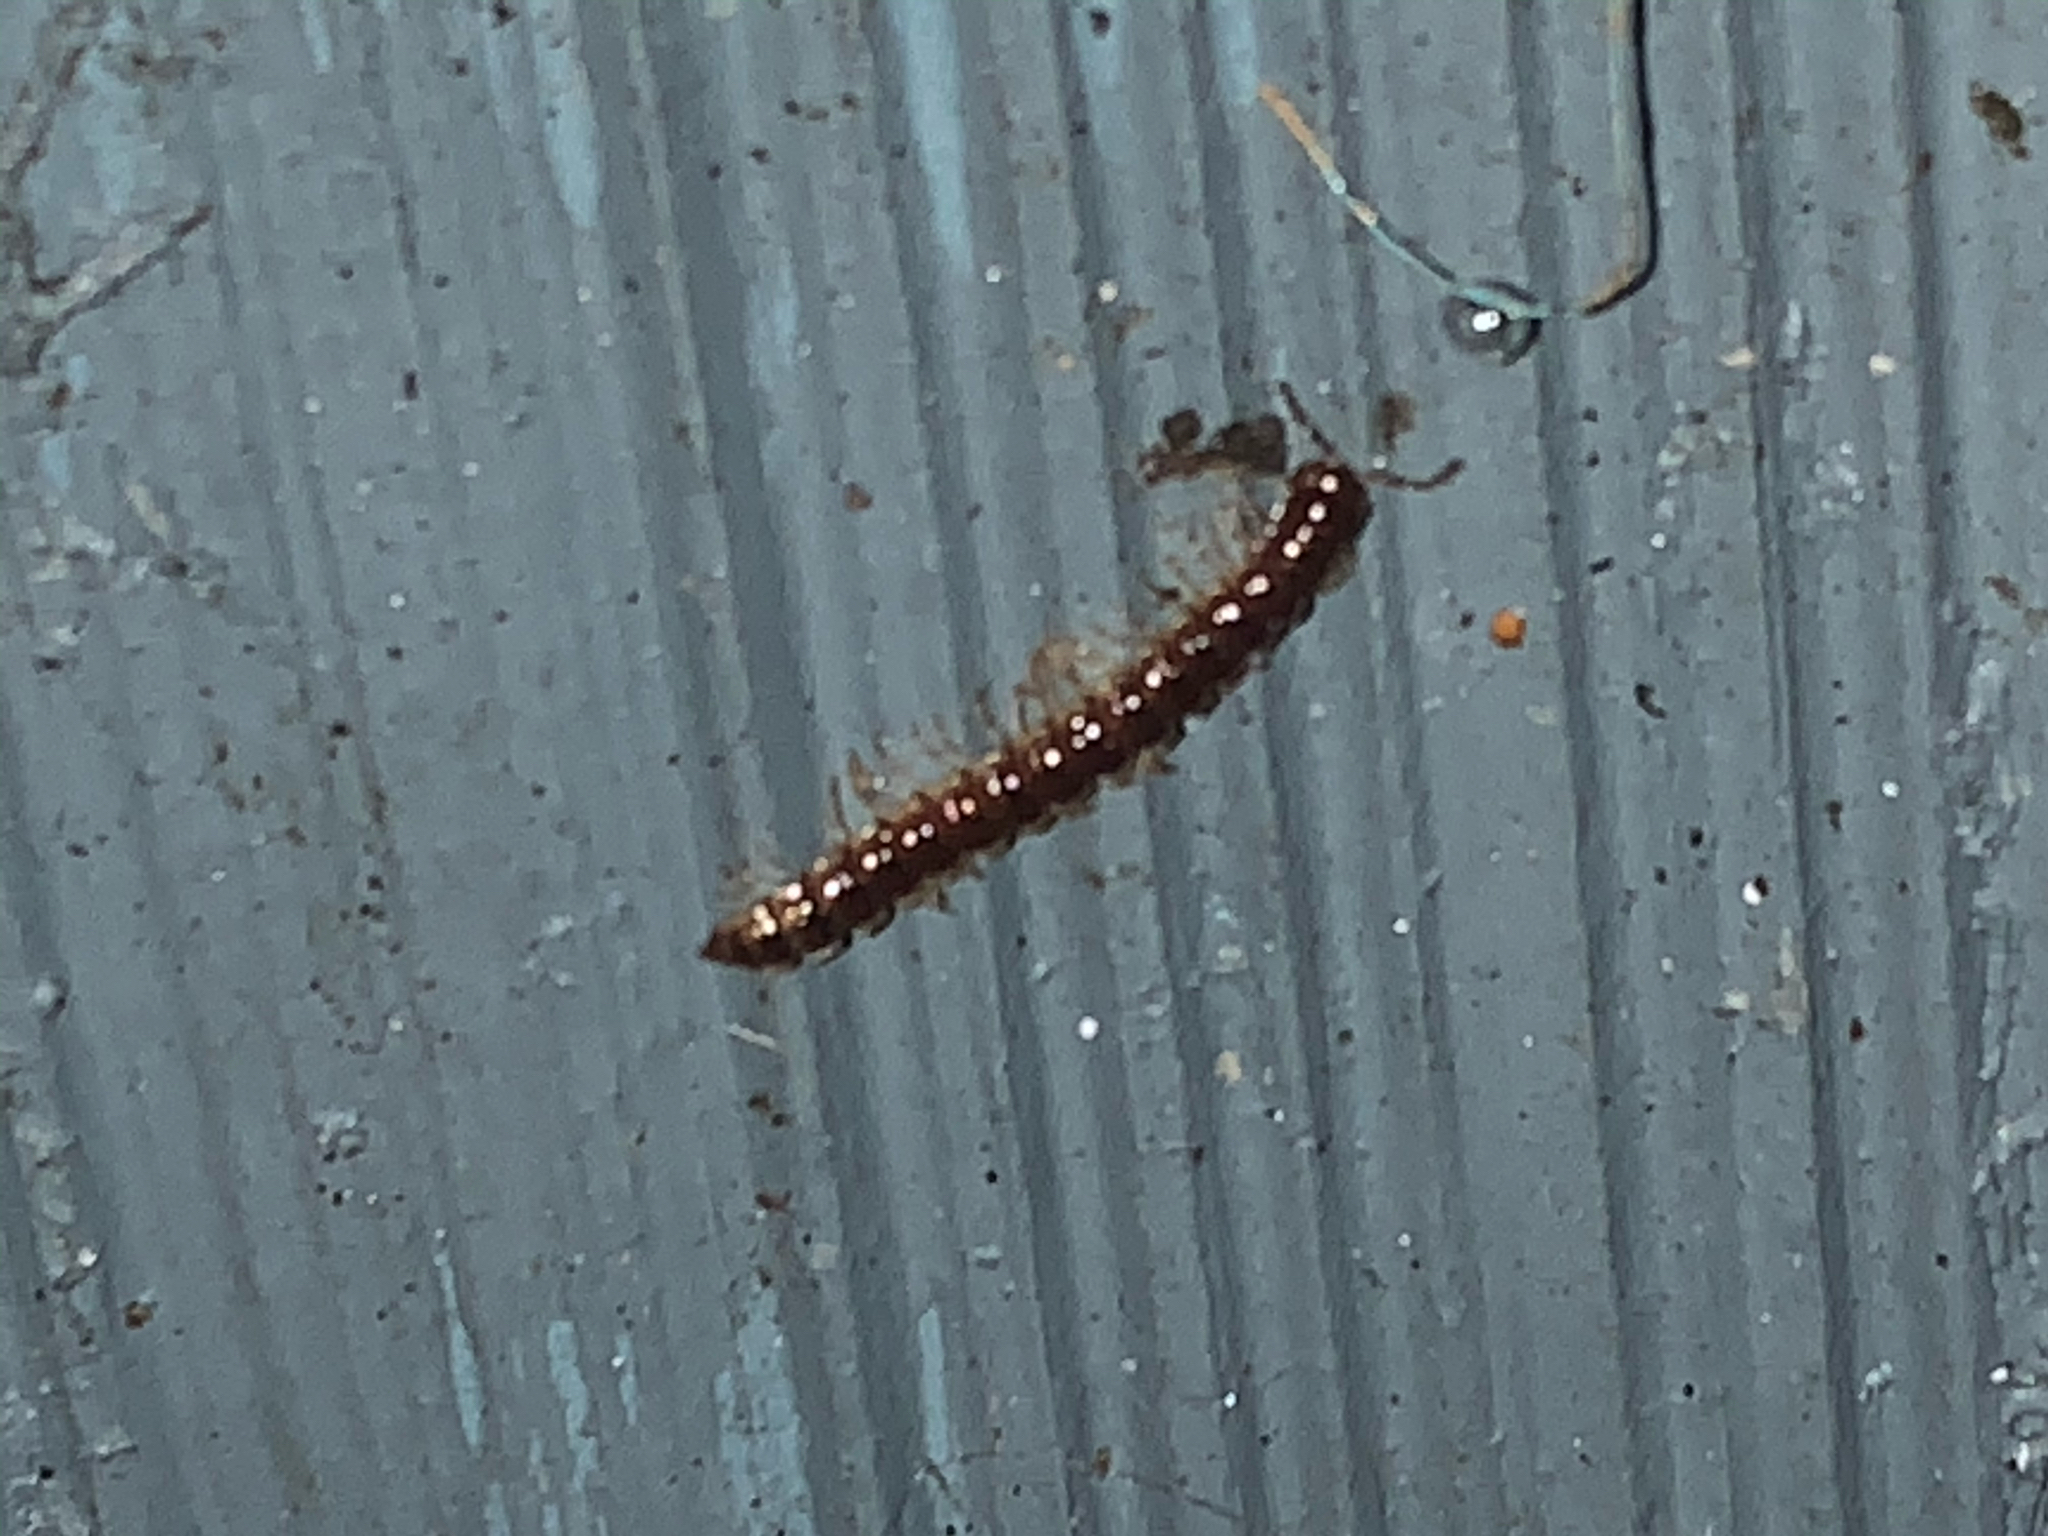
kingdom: Animalia
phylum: Arthropoda
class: Diplopoda
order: Polydesmida
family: Paradoxosomatidae
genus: Oxidus
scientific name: Oxidus gracilis
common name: Greenhouse millipede
